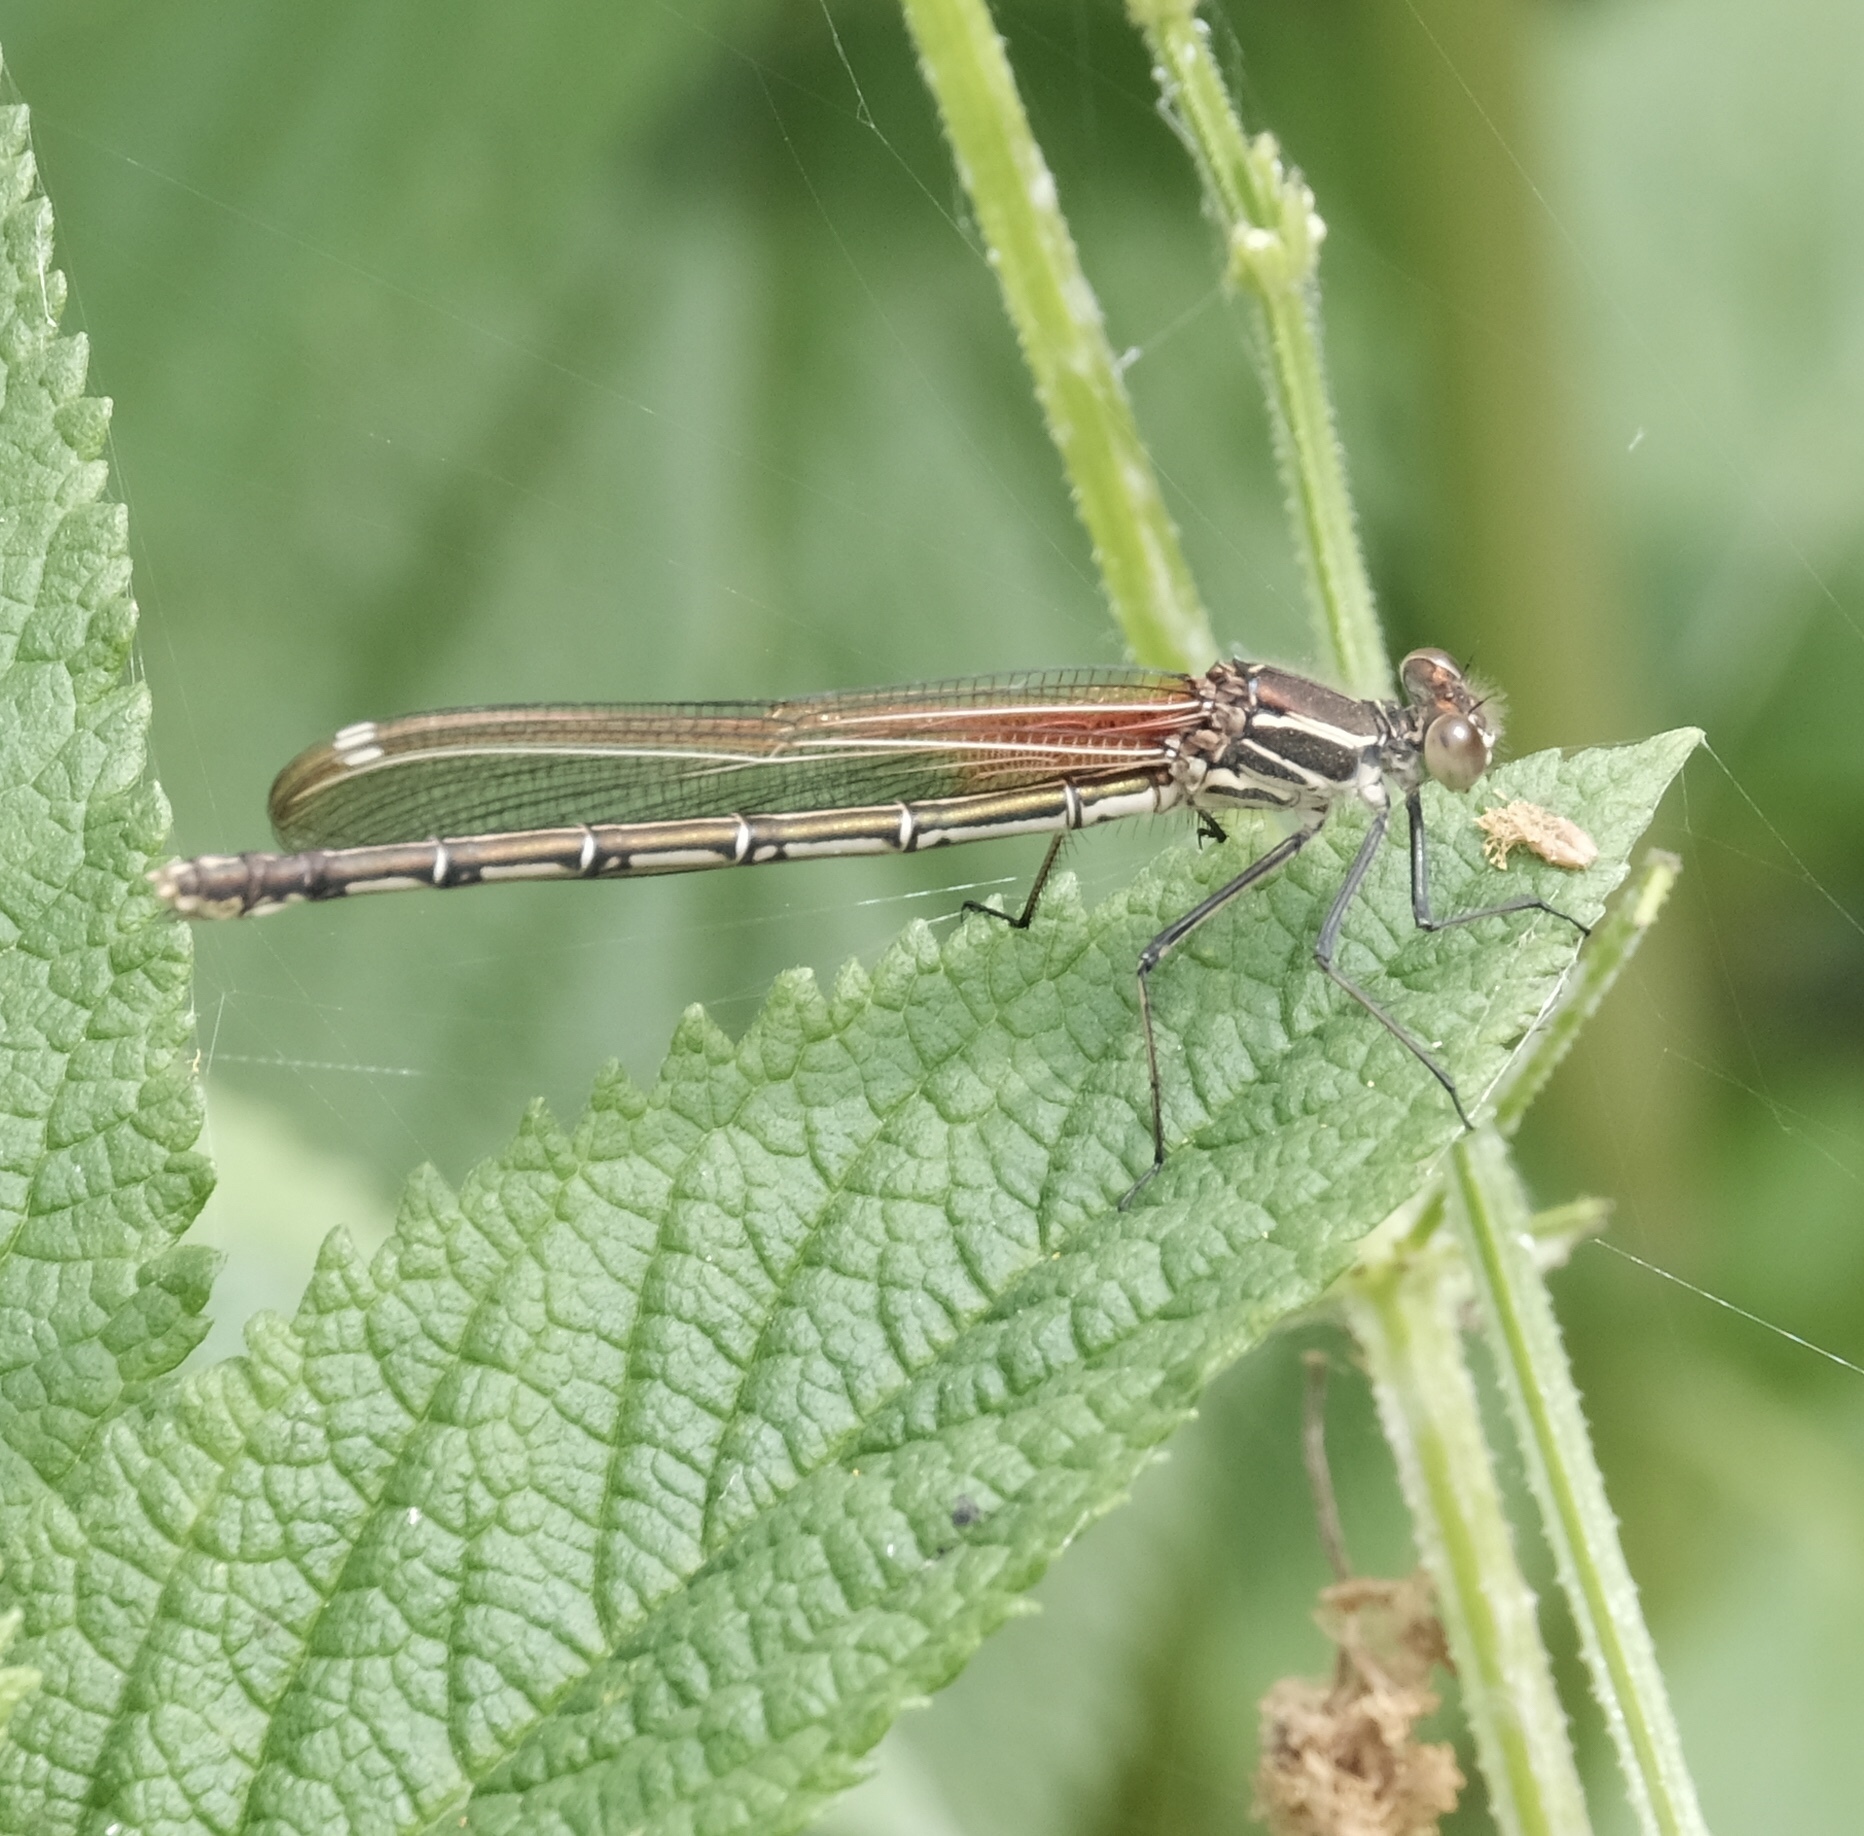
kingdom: Animalia
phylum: Arthropoda
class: Insecta
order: Odonata
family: Calopterygidae
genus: Hetaerina
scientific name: Hetaerina americana
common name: American rubyspot
